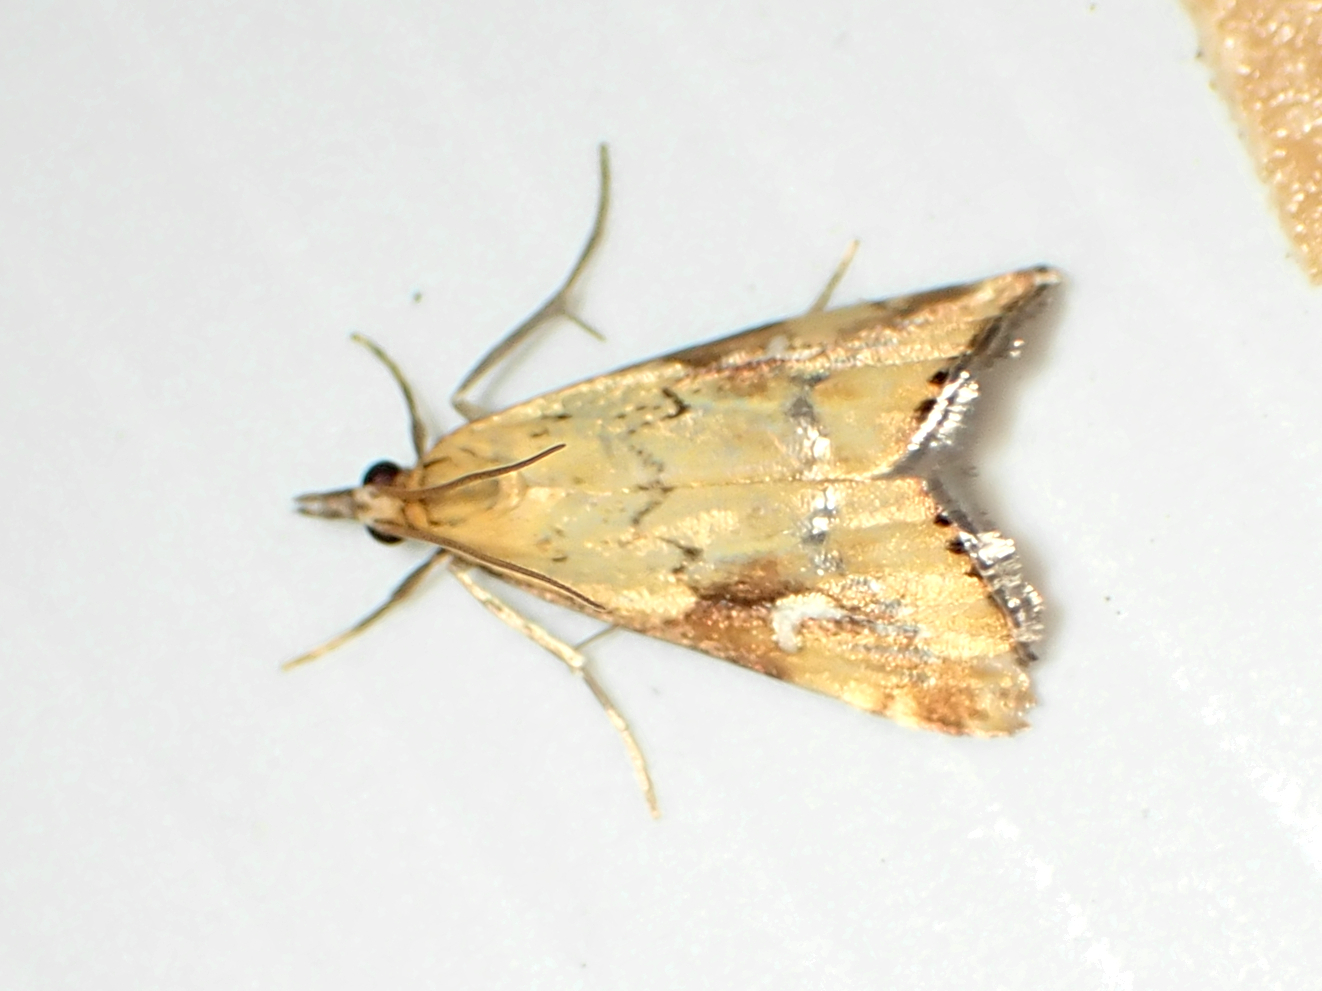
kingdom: Animalia
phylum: Arthropoda
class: Insecta
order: Lepidoptera
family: Crambidae
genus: Glaucocharis
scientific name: Glaucocharis lepidella
